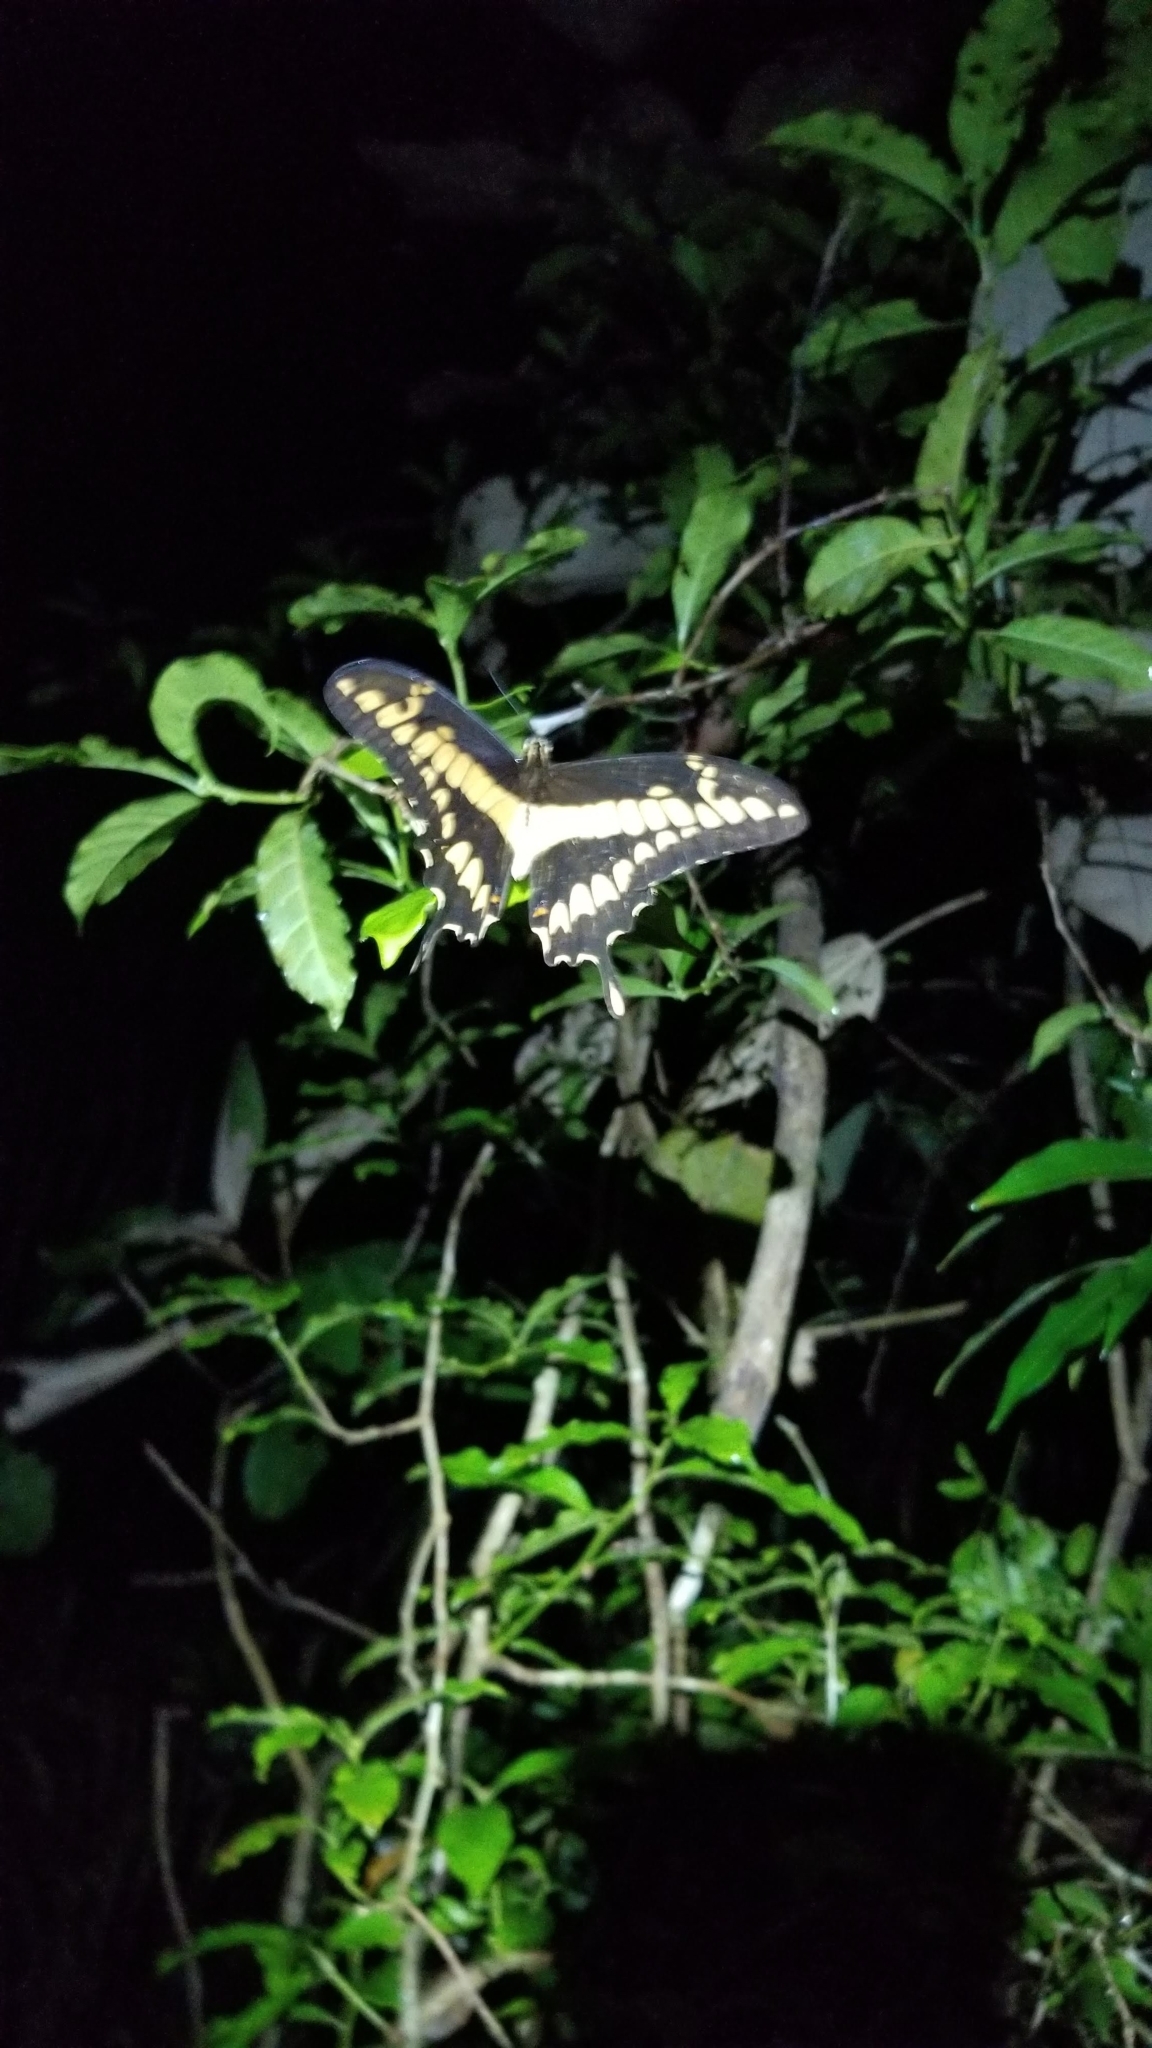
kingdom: Animalia
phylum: Arthropoda
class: Insecta
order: Lepidoptera
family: Papilionidae
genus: Papilio
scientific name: Papilio thoas
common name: King swallowtail
